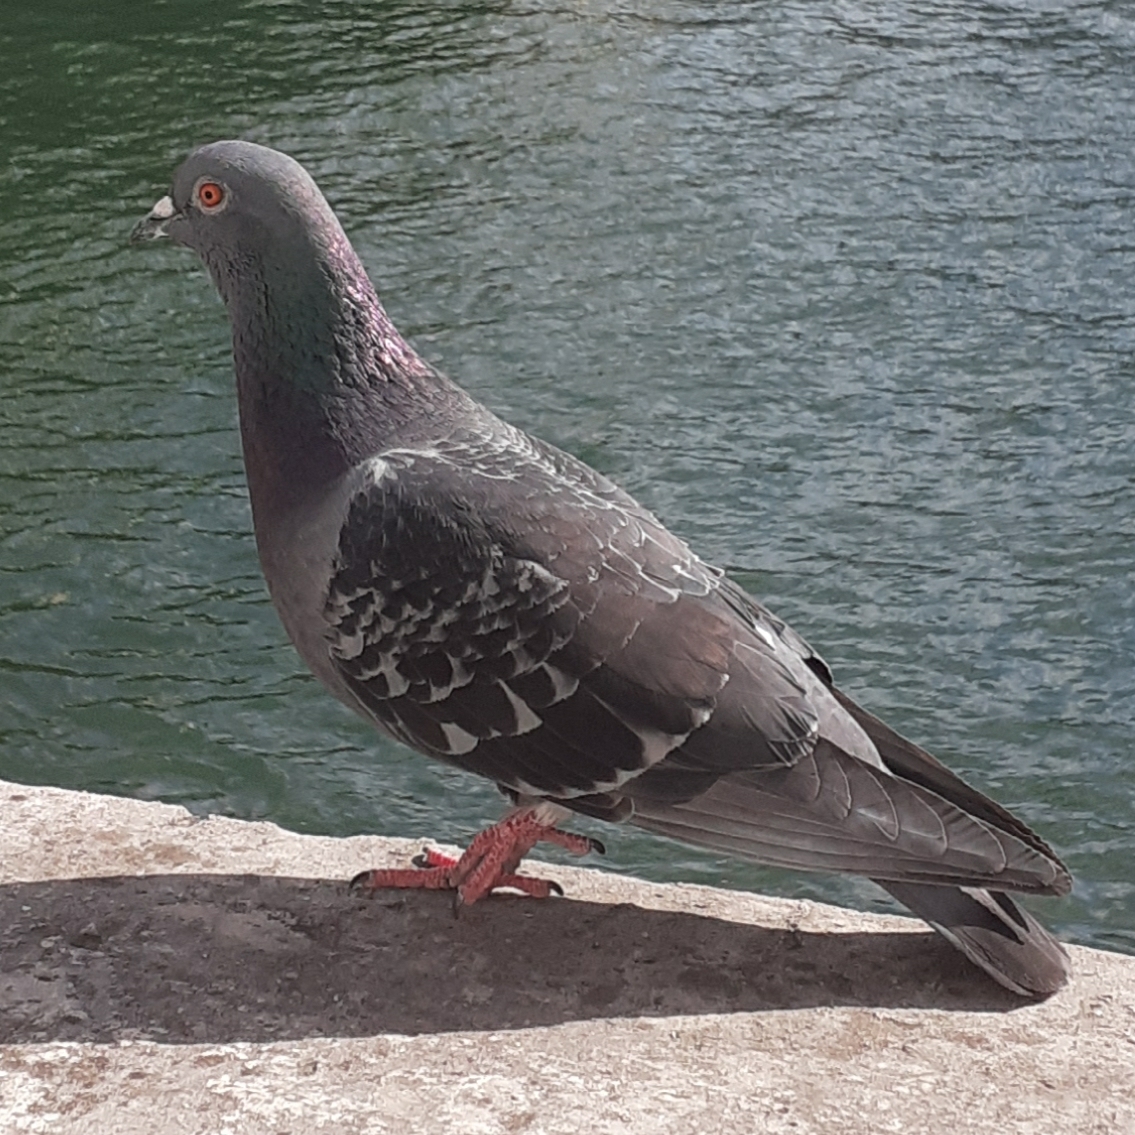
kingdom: Animalia
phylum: Chordata
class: Aves
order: Columbiformes
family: Columbidae
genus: Columba
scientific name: Columba livia
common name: Rock pigeon
